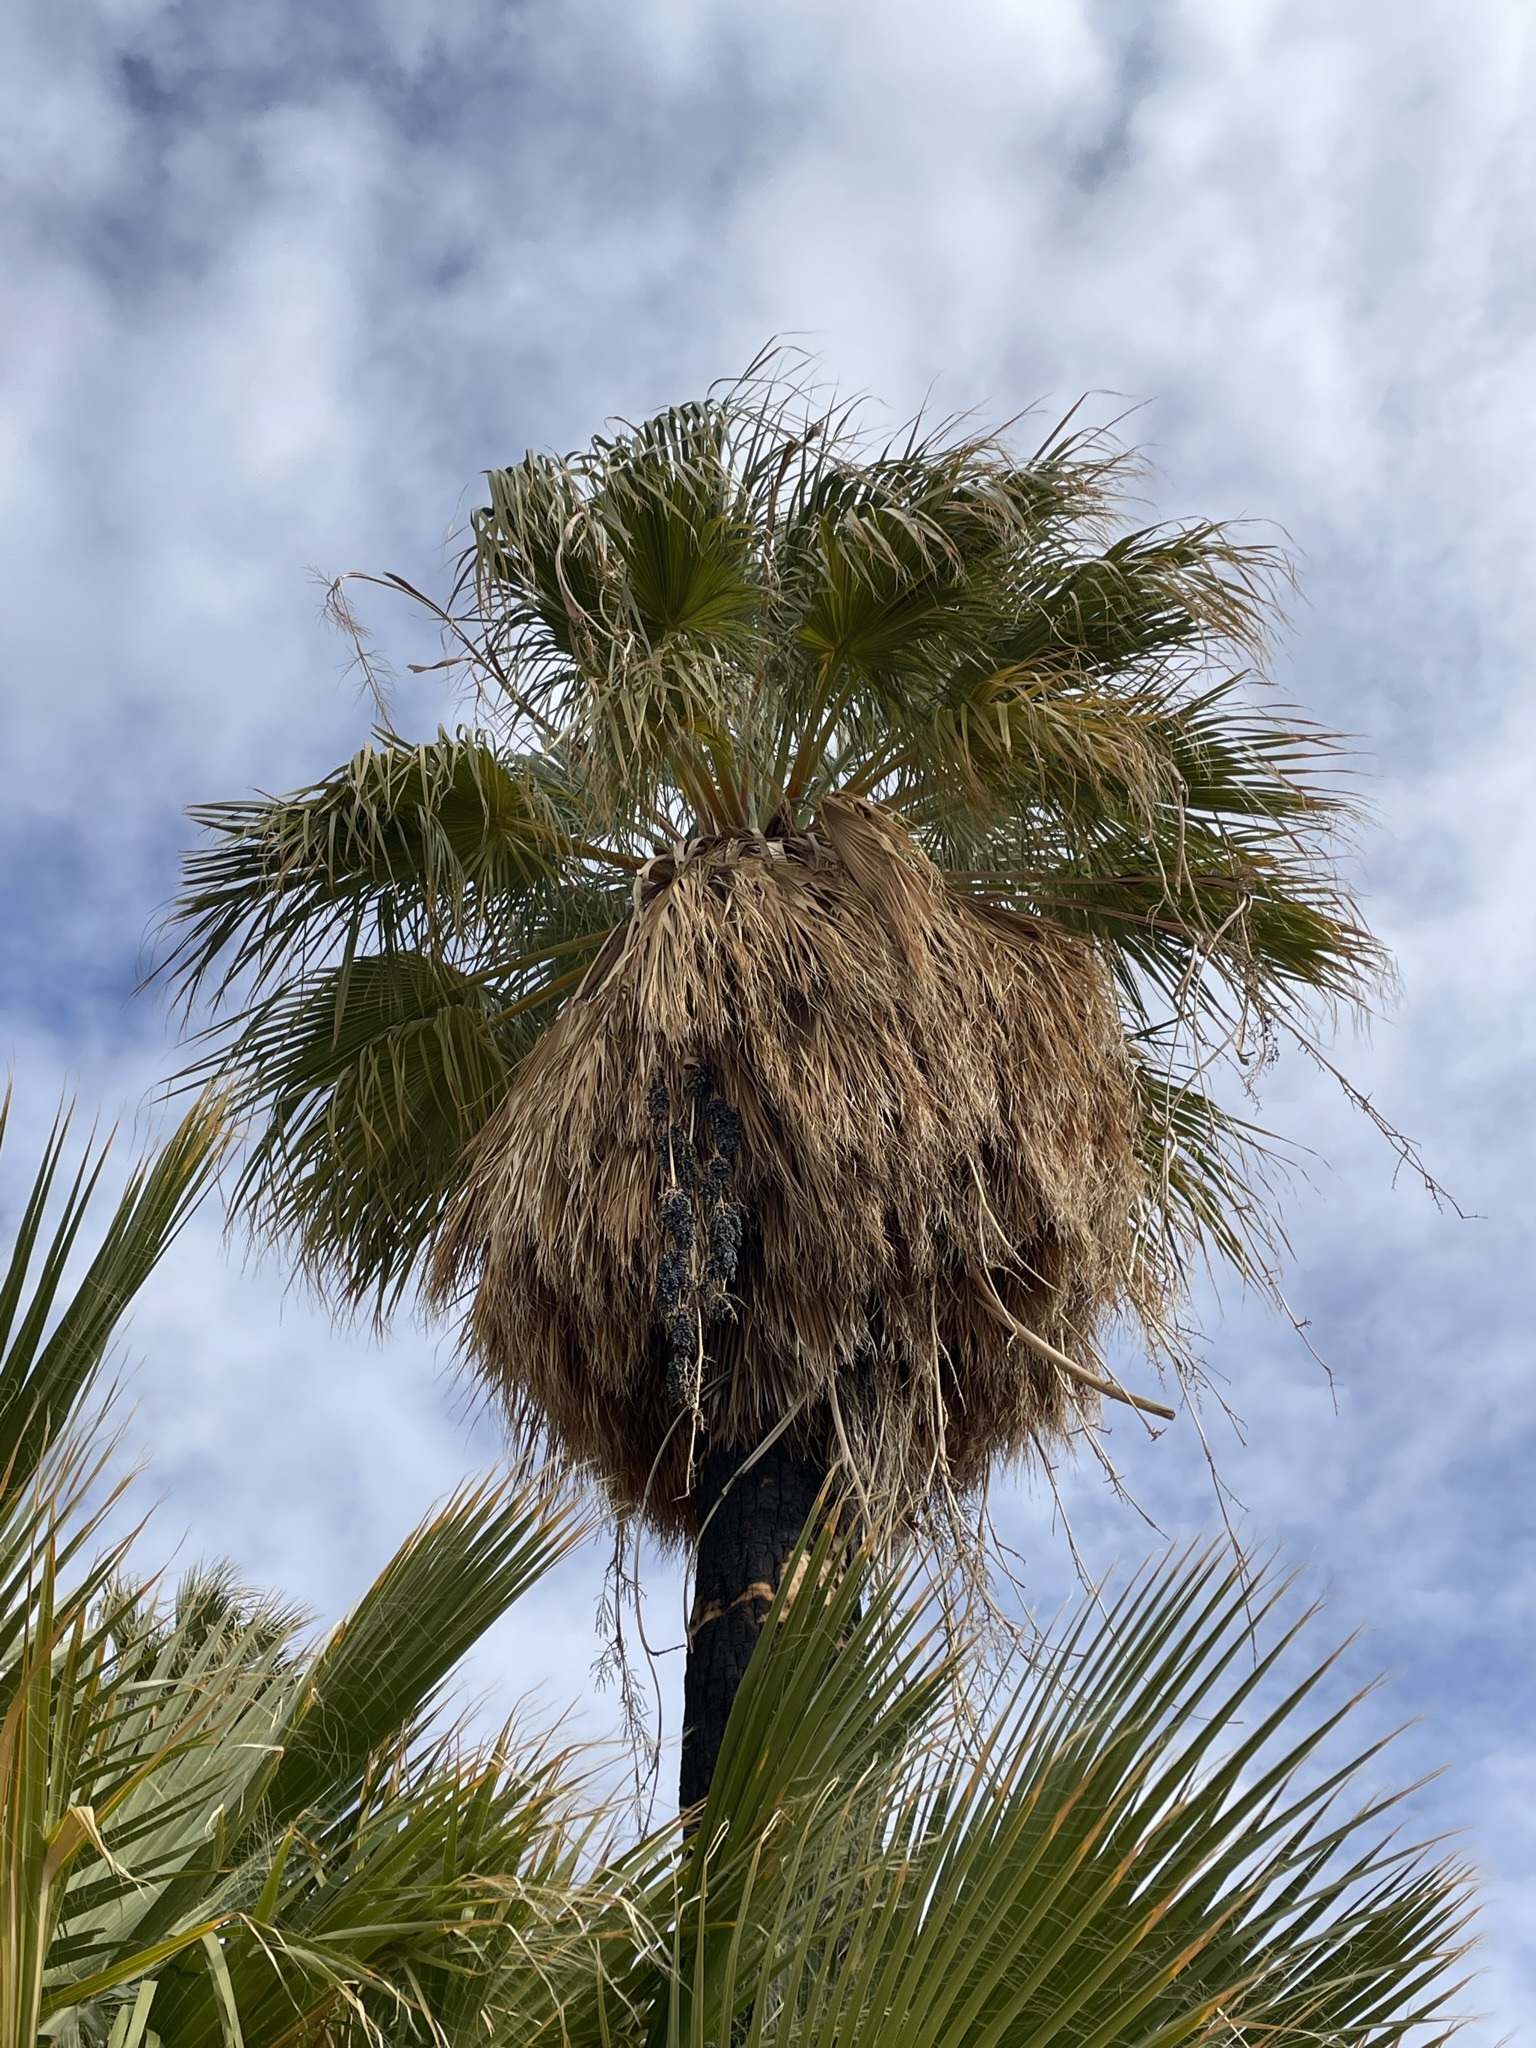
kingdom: Plantae
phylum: Tracheophyta
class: Liliopsida
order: Arecales
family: Arecaceae
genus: Washingtonia
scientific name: Washingtonia filifera
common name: California fan palm
